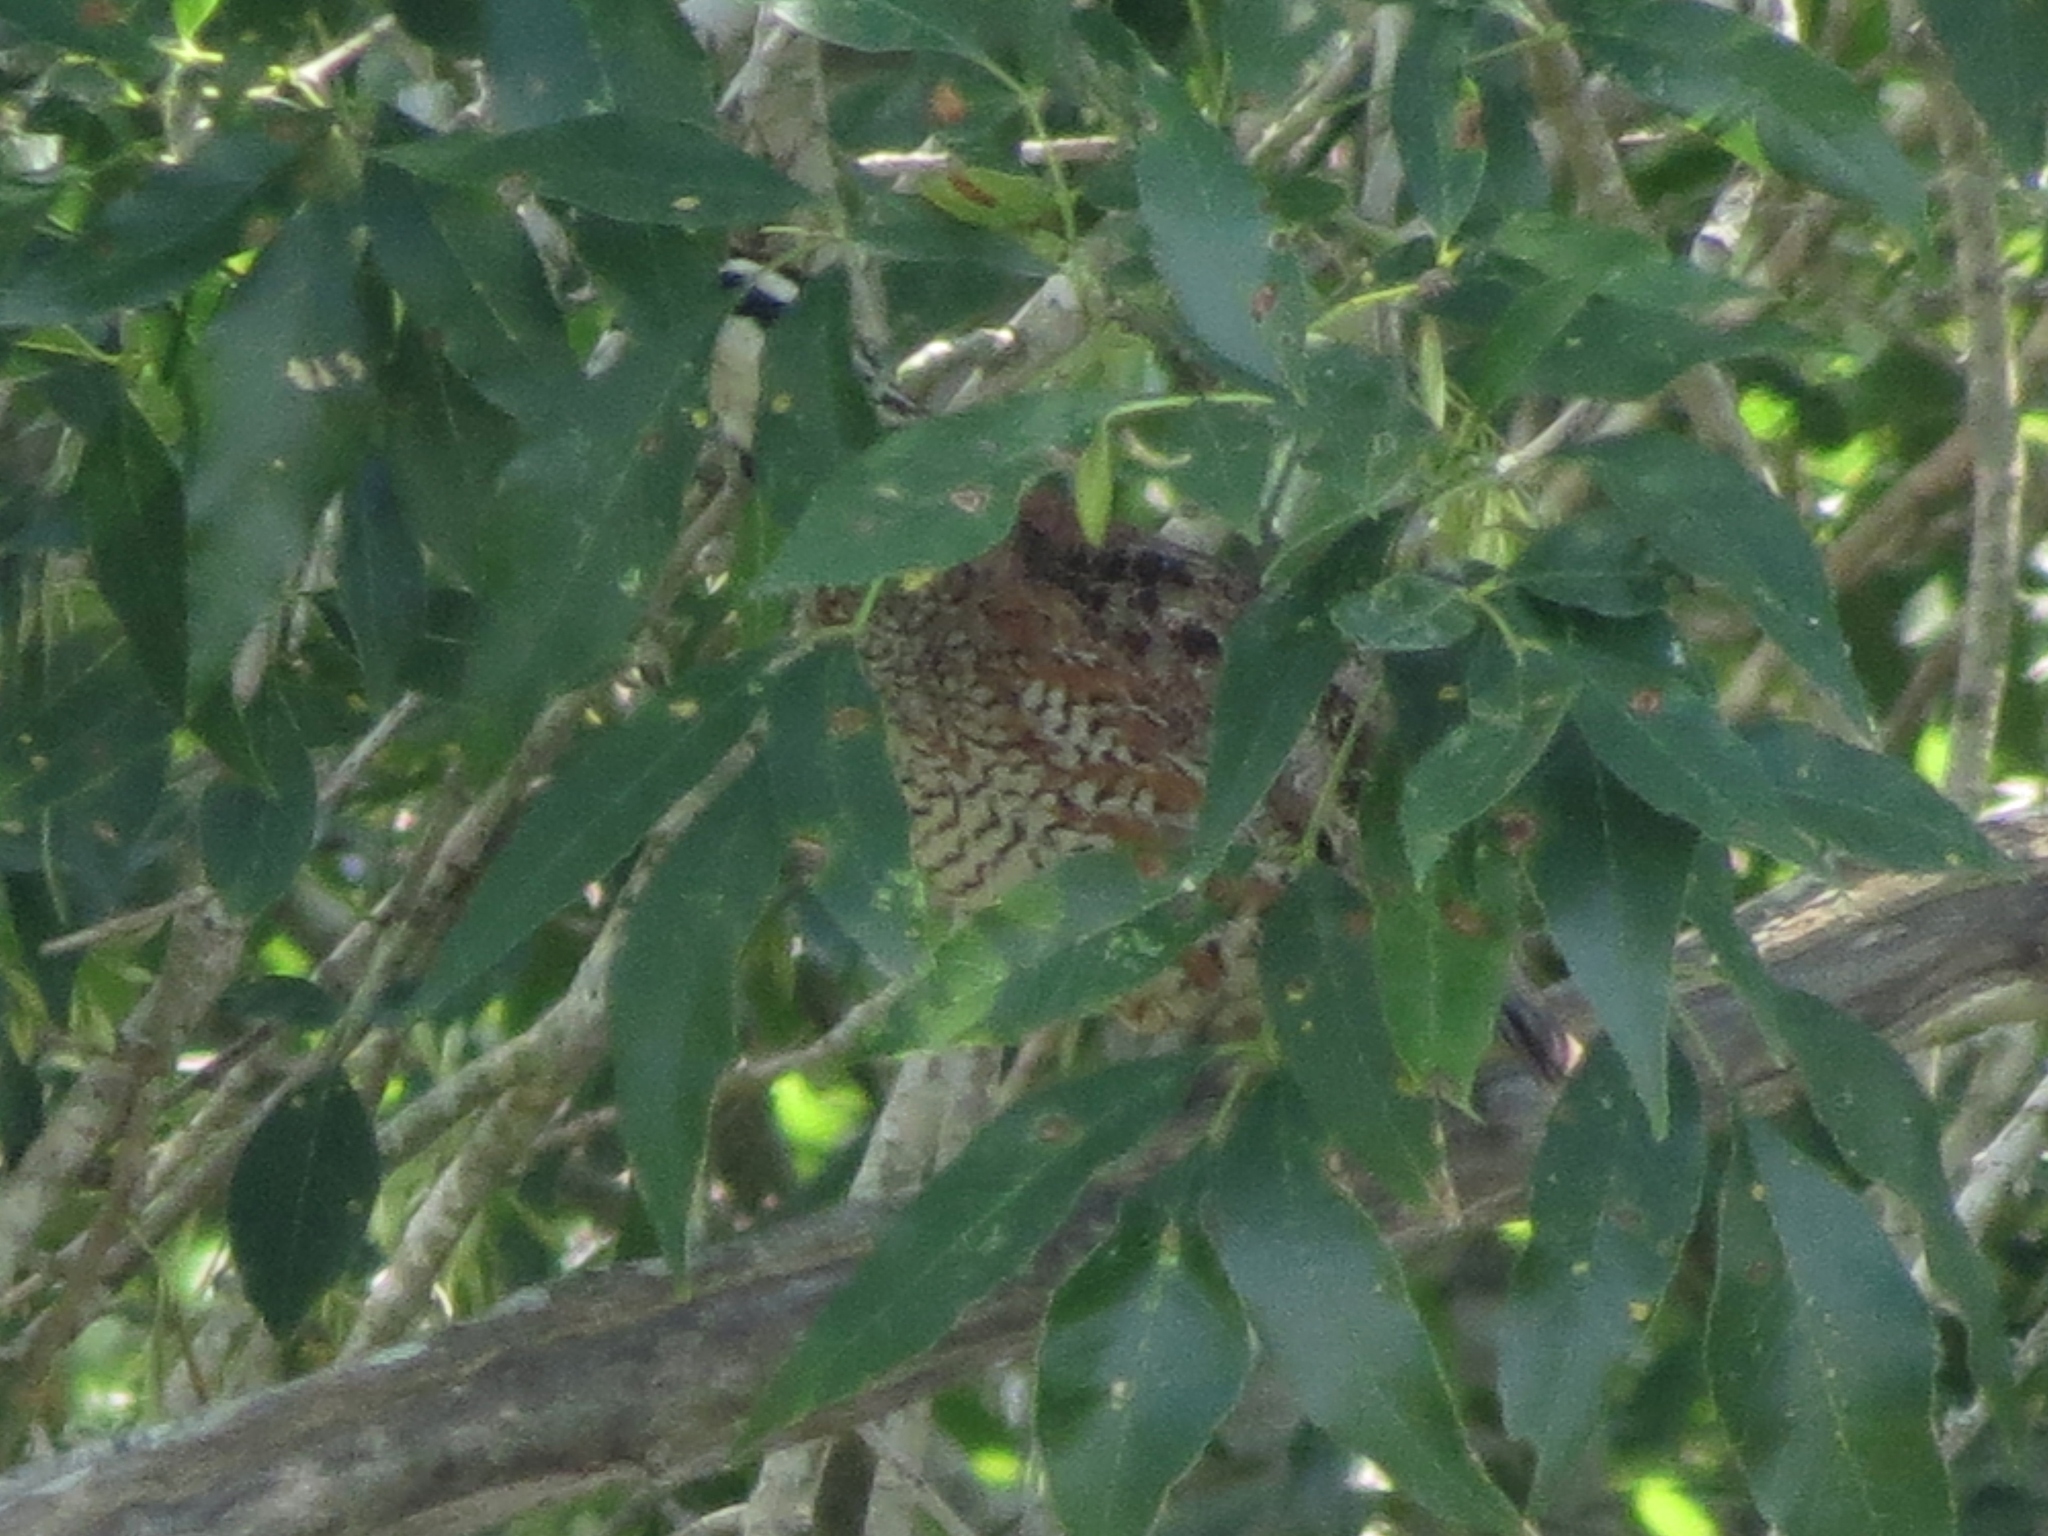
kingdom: Animalia
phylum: Chordata
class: Aves
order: Galliformes
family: Odontophoridae
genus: Colinus
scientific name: Colinus virginianus
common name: Northern bobwhite
